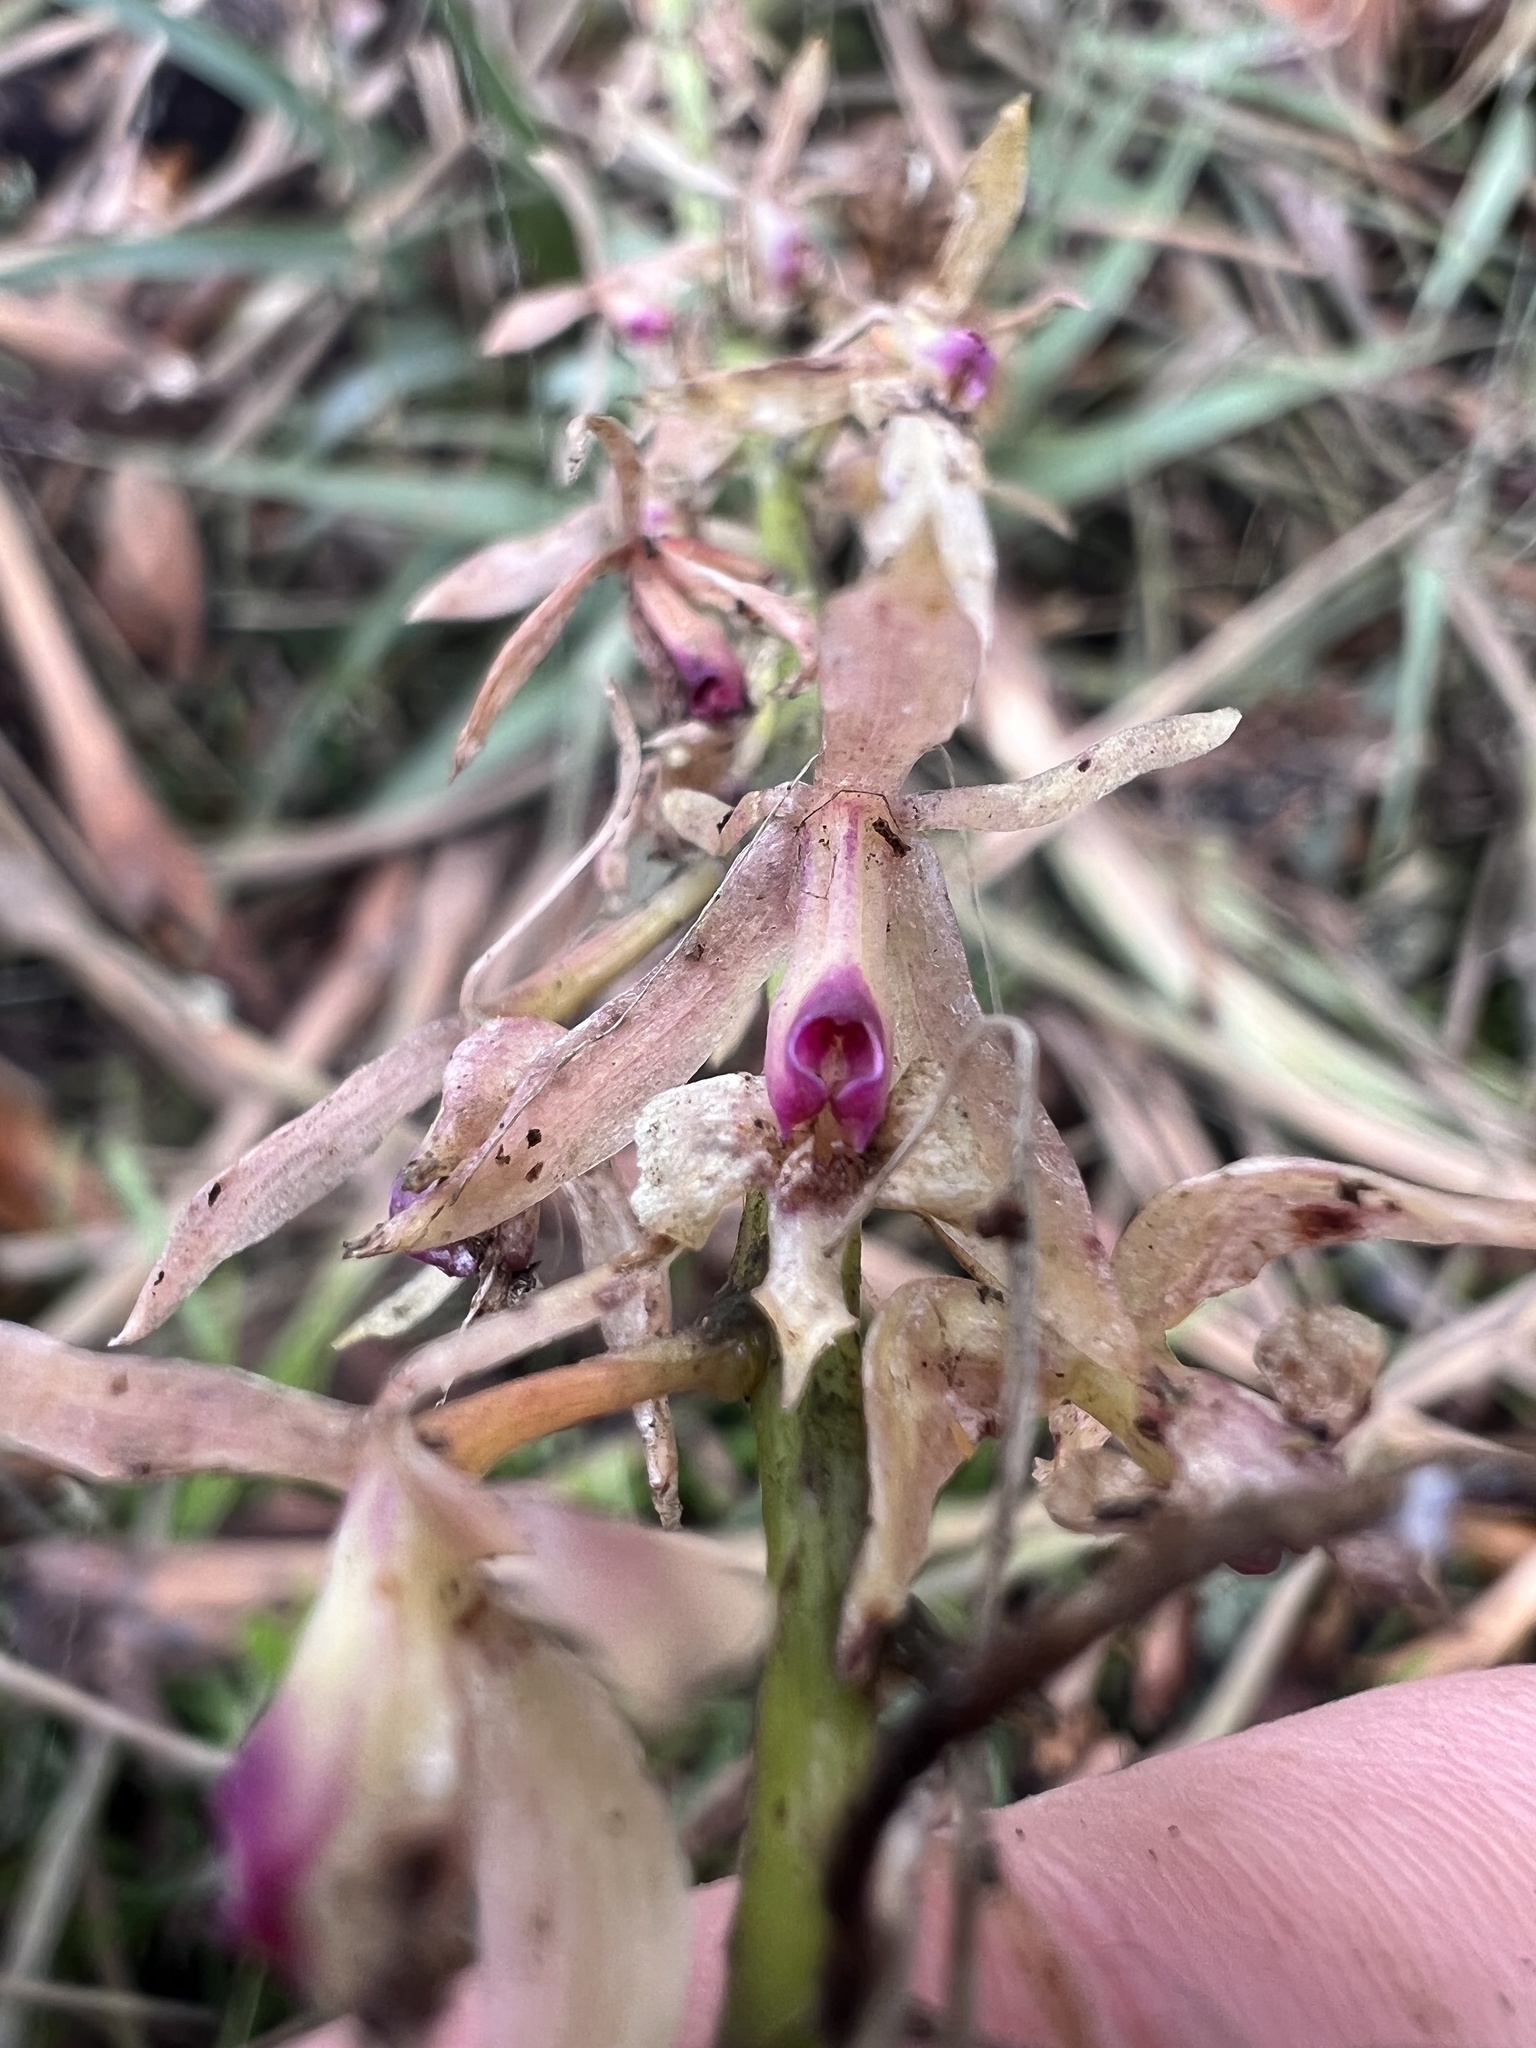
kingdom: Plantae
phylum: Tracheophyta
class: Liliopsida
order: Asparagales
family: Orchidaceae
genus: Epidendrum
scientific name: Epidendrum moritzii
